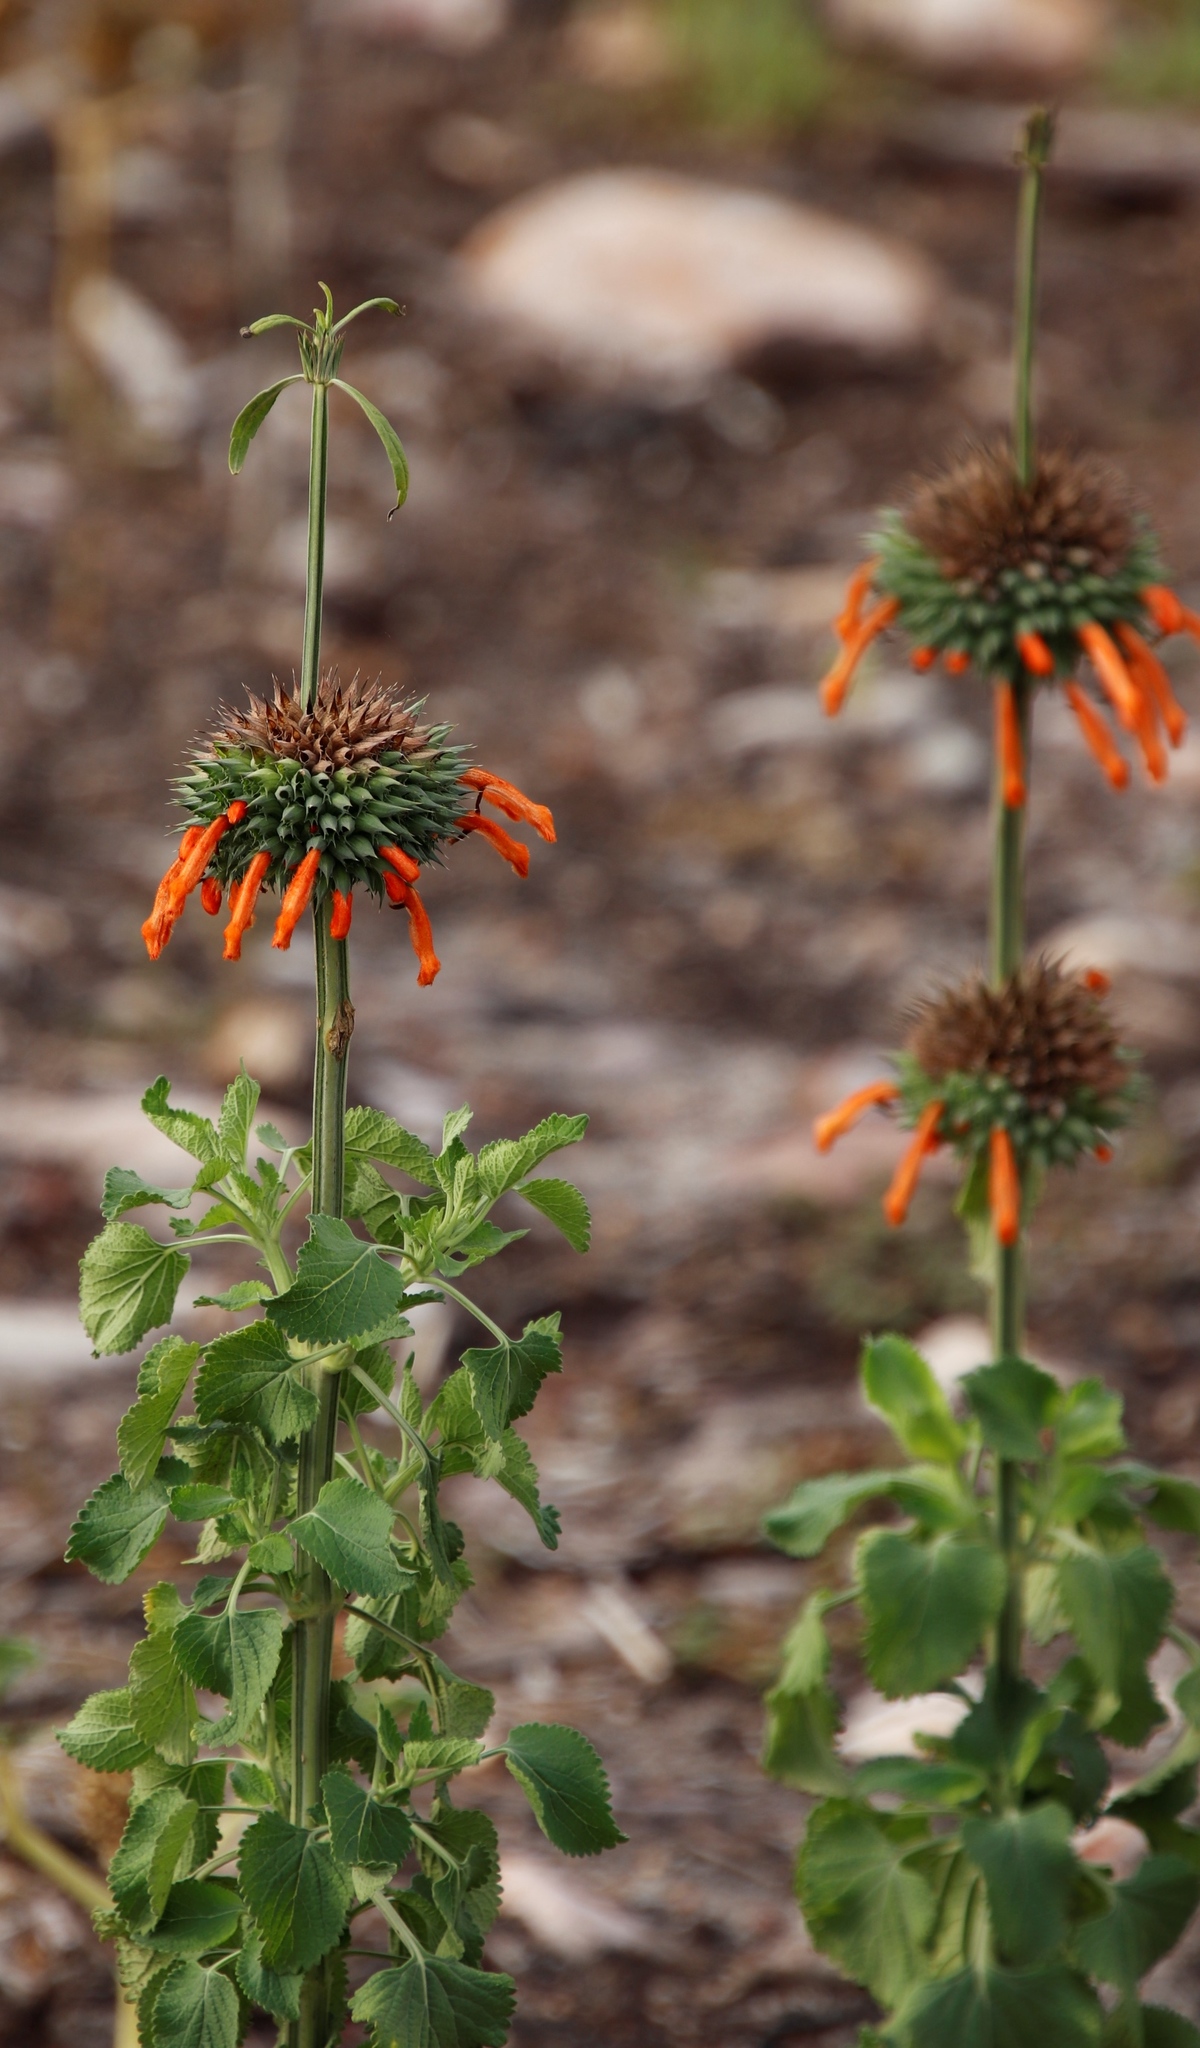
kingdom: Plantae
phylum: Tracheophyta
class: Magnoliopsida
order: Lamiales
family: Lamiaceae
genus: Leonotis
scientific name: Leonotis nepetifolia
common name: Christmas candlestick
